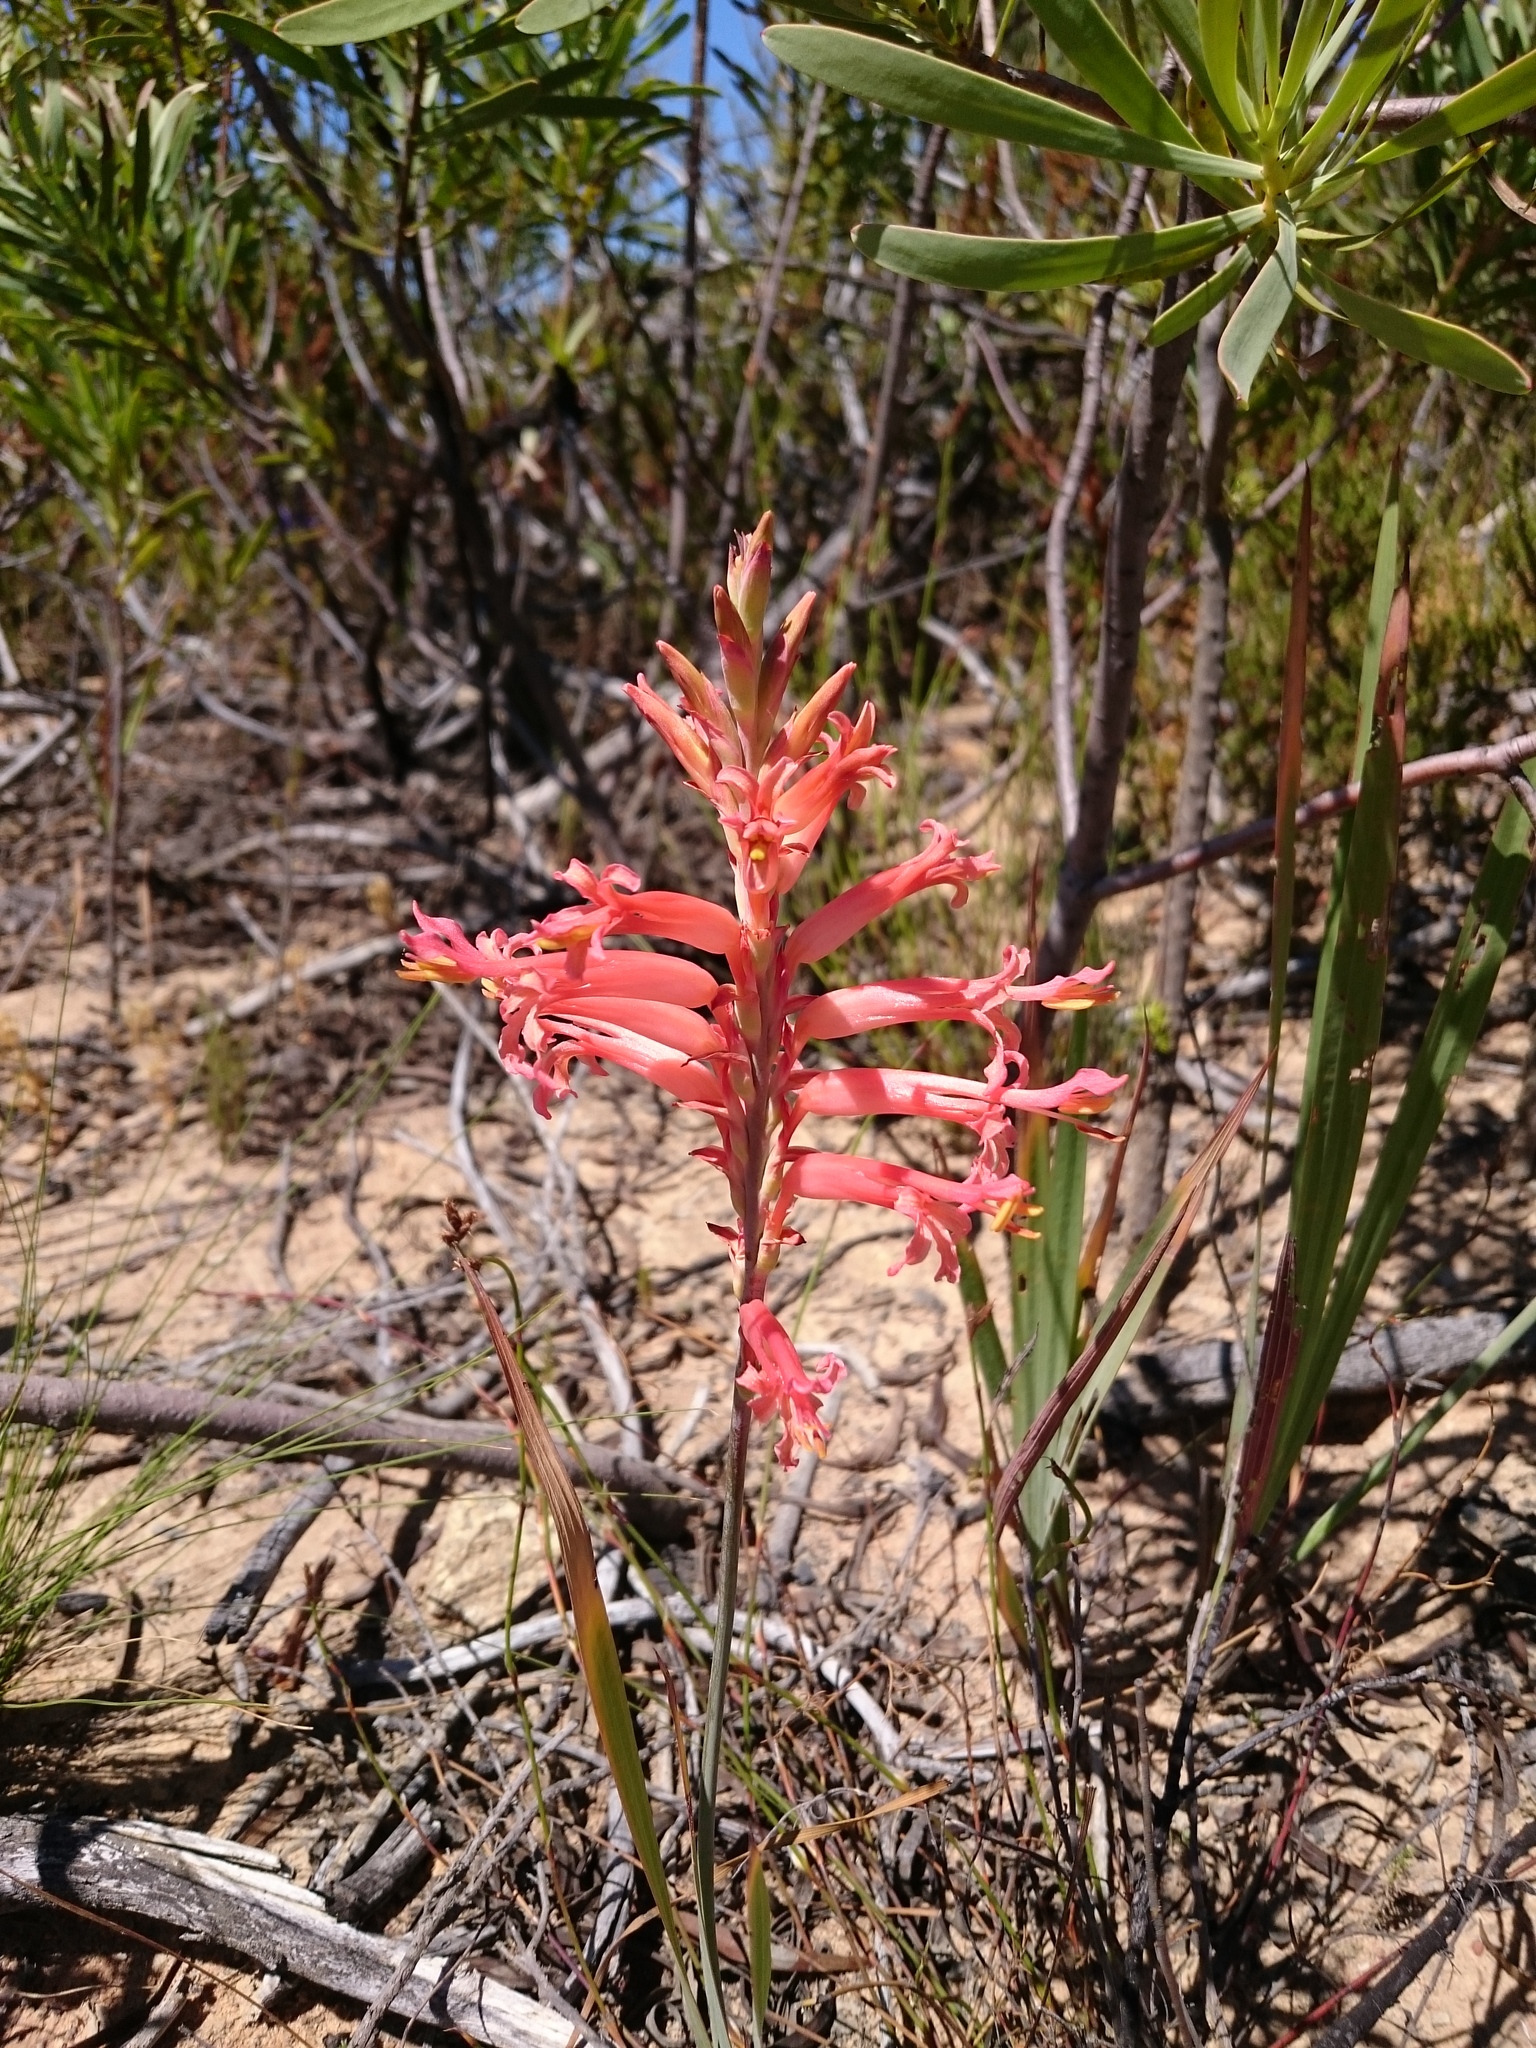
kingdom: Plantae
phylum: Tracheophyta
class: Liliopsida
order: Asparagales
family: Iridaceae
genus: Tritoniopsis
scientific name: Tritoniopsis antholyza
